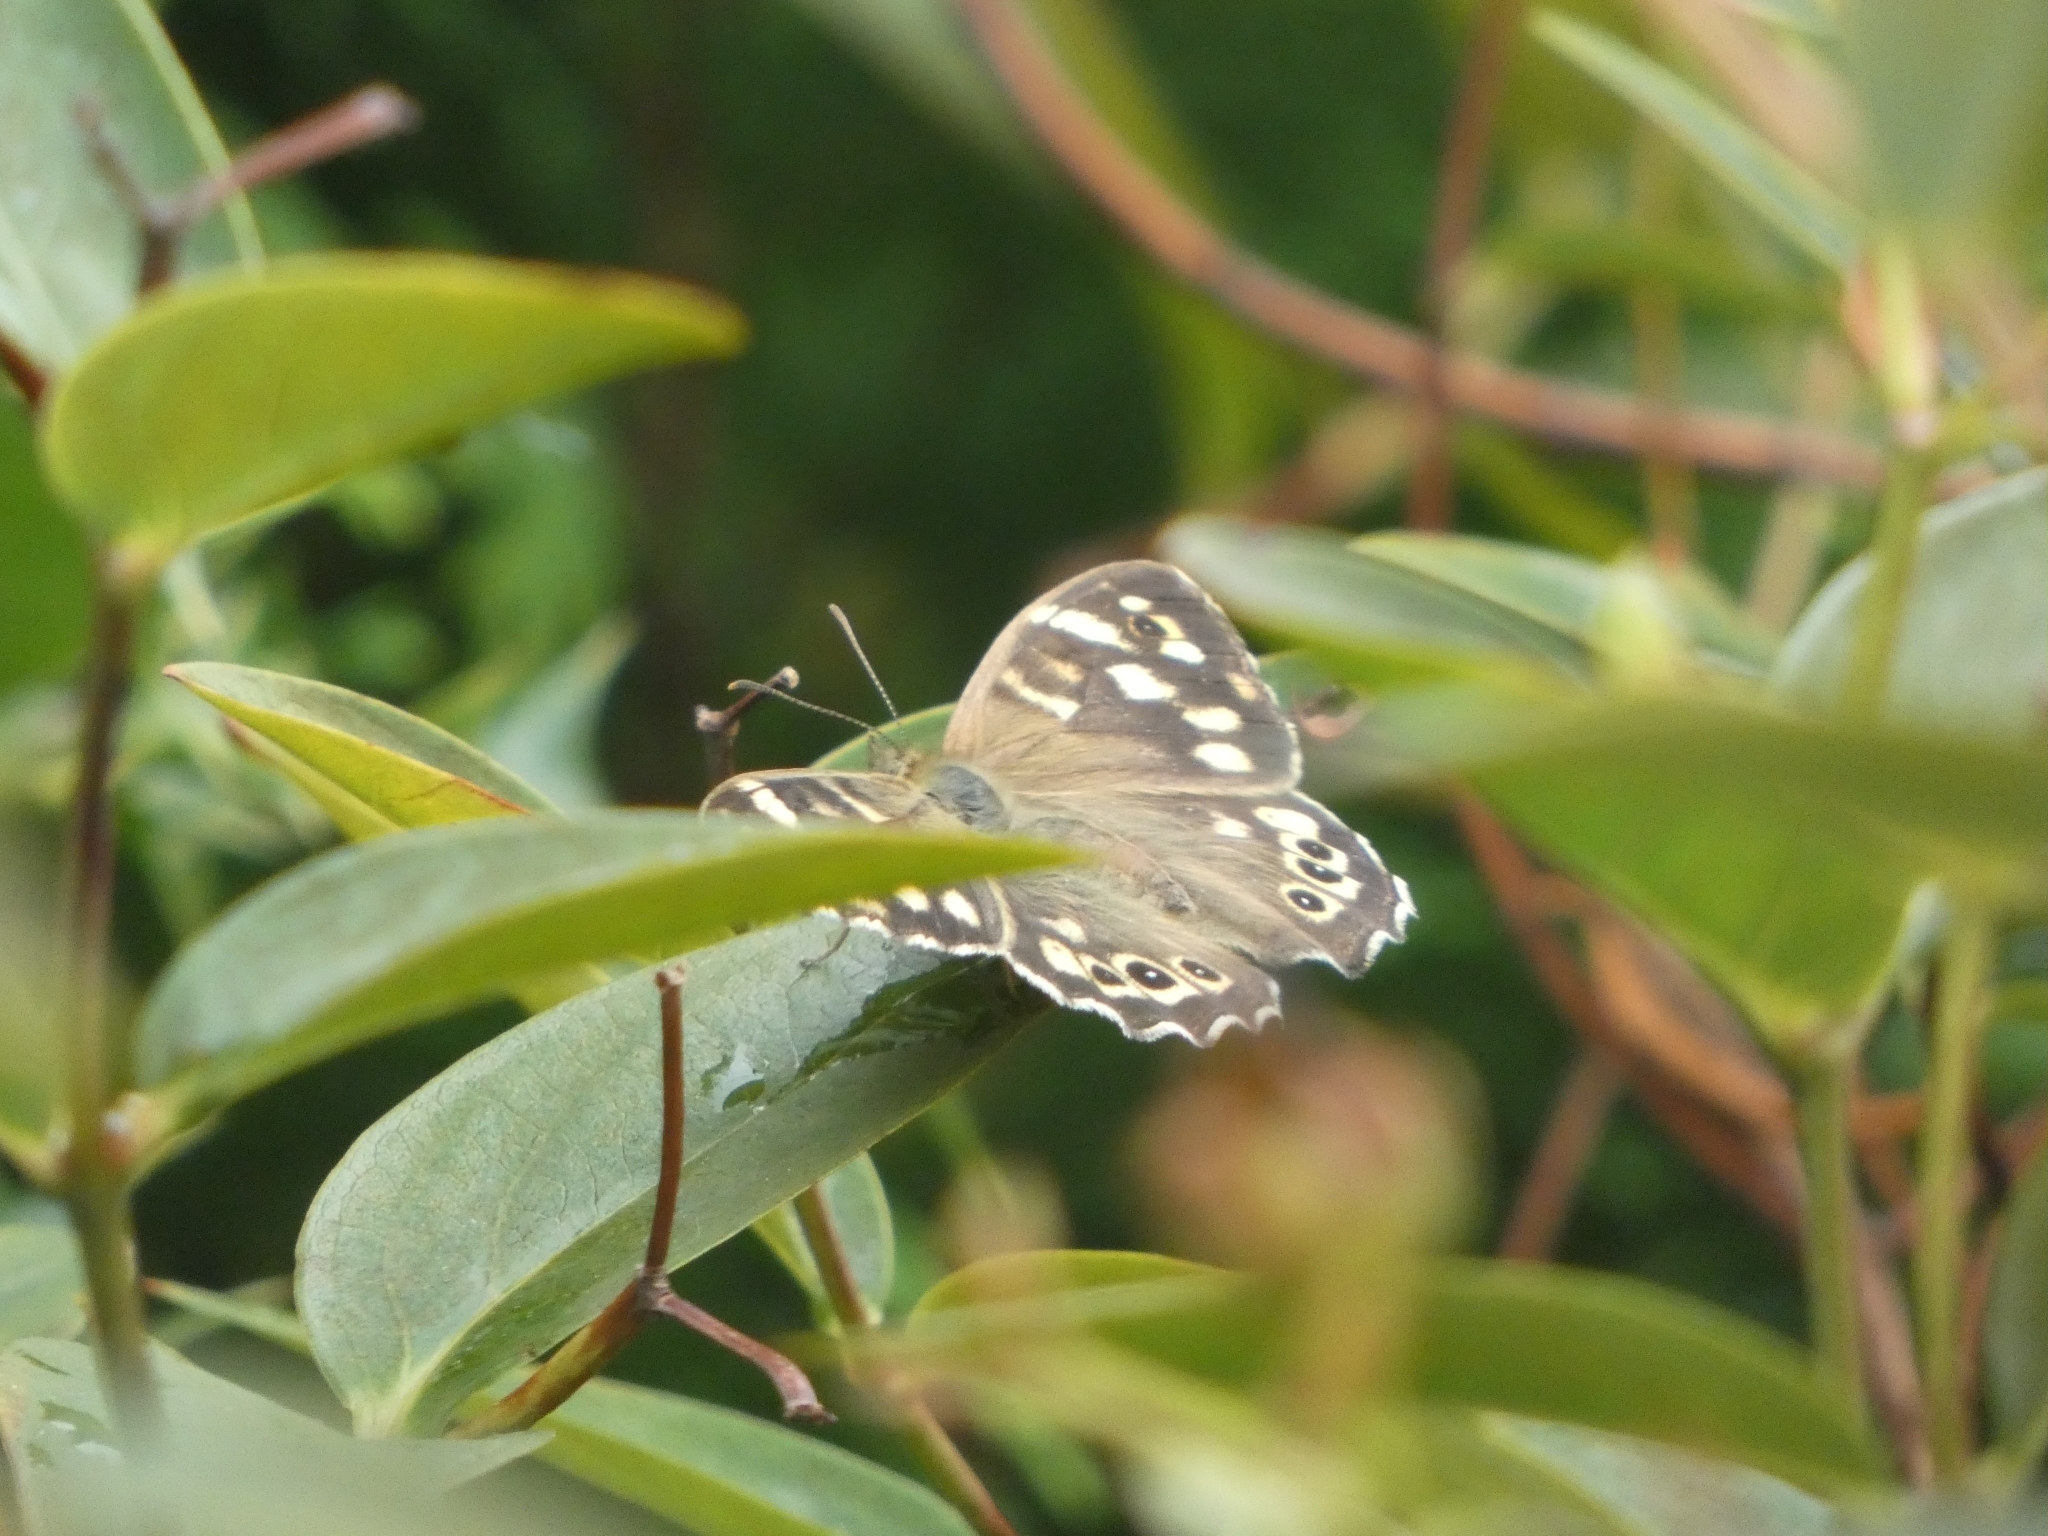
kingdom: Animalia
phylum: Arthropoda
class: Insecta
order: Lepidoptera
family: Nymphalidae
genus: Pararge
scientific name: Pararge aegeria
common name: Speckled wood
